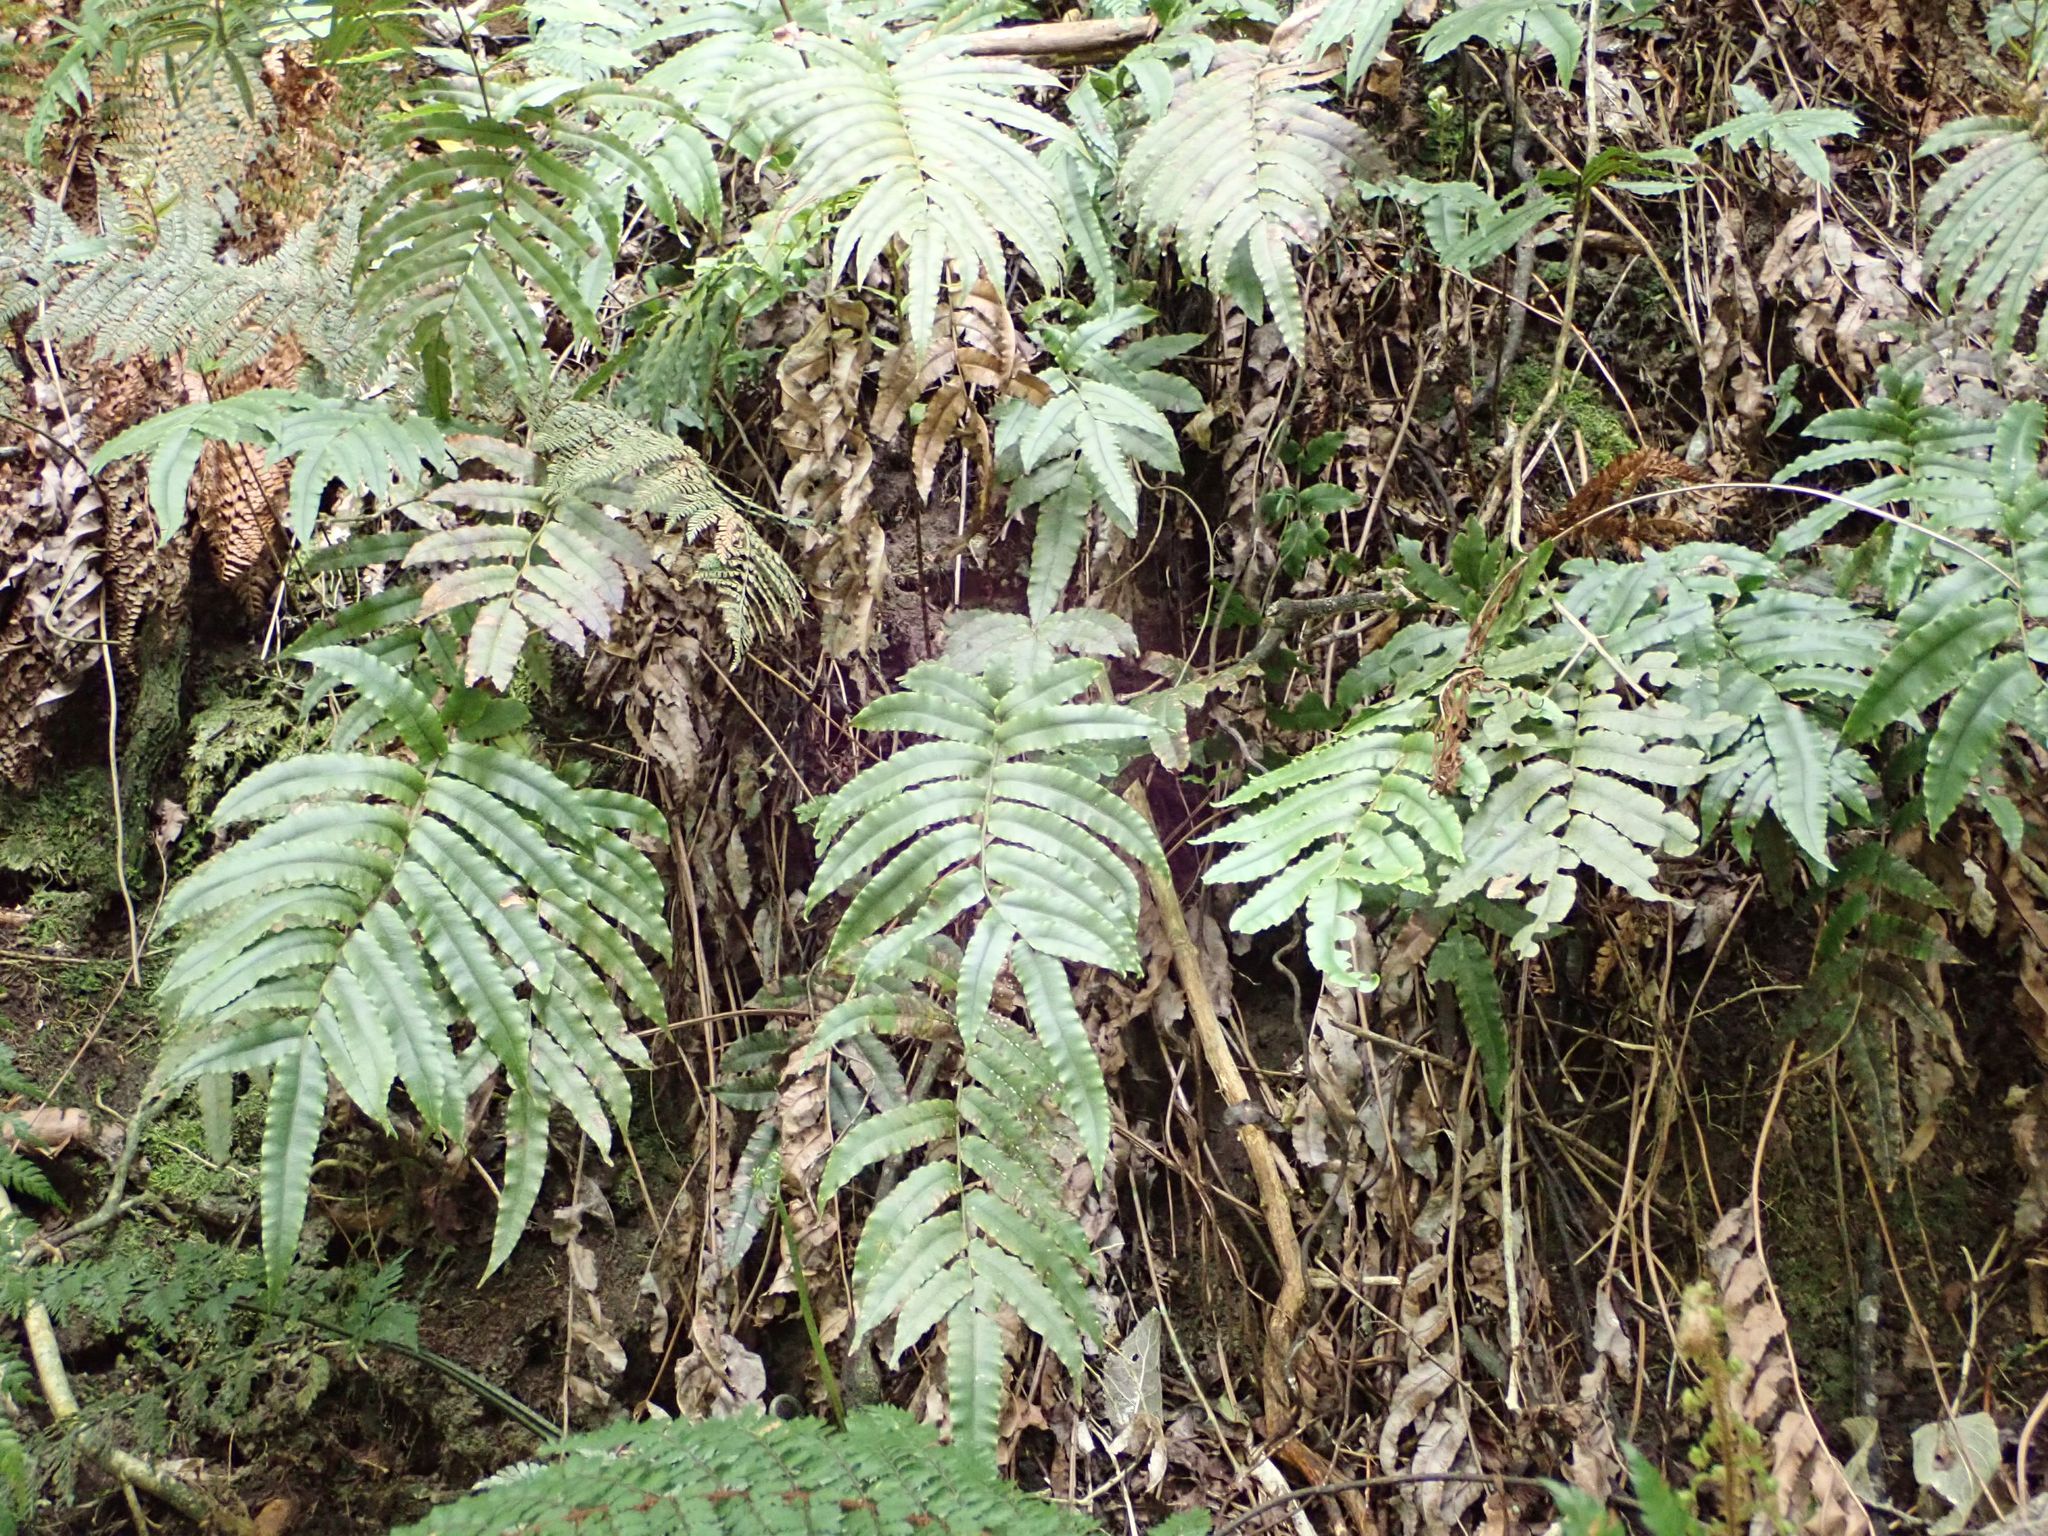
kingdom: Plantae
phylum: Tracheophyta
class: Polypodiopsida
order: Polypodiales
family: Blechnaceae
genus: Parablechnum
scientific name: Parablechnum procerum
